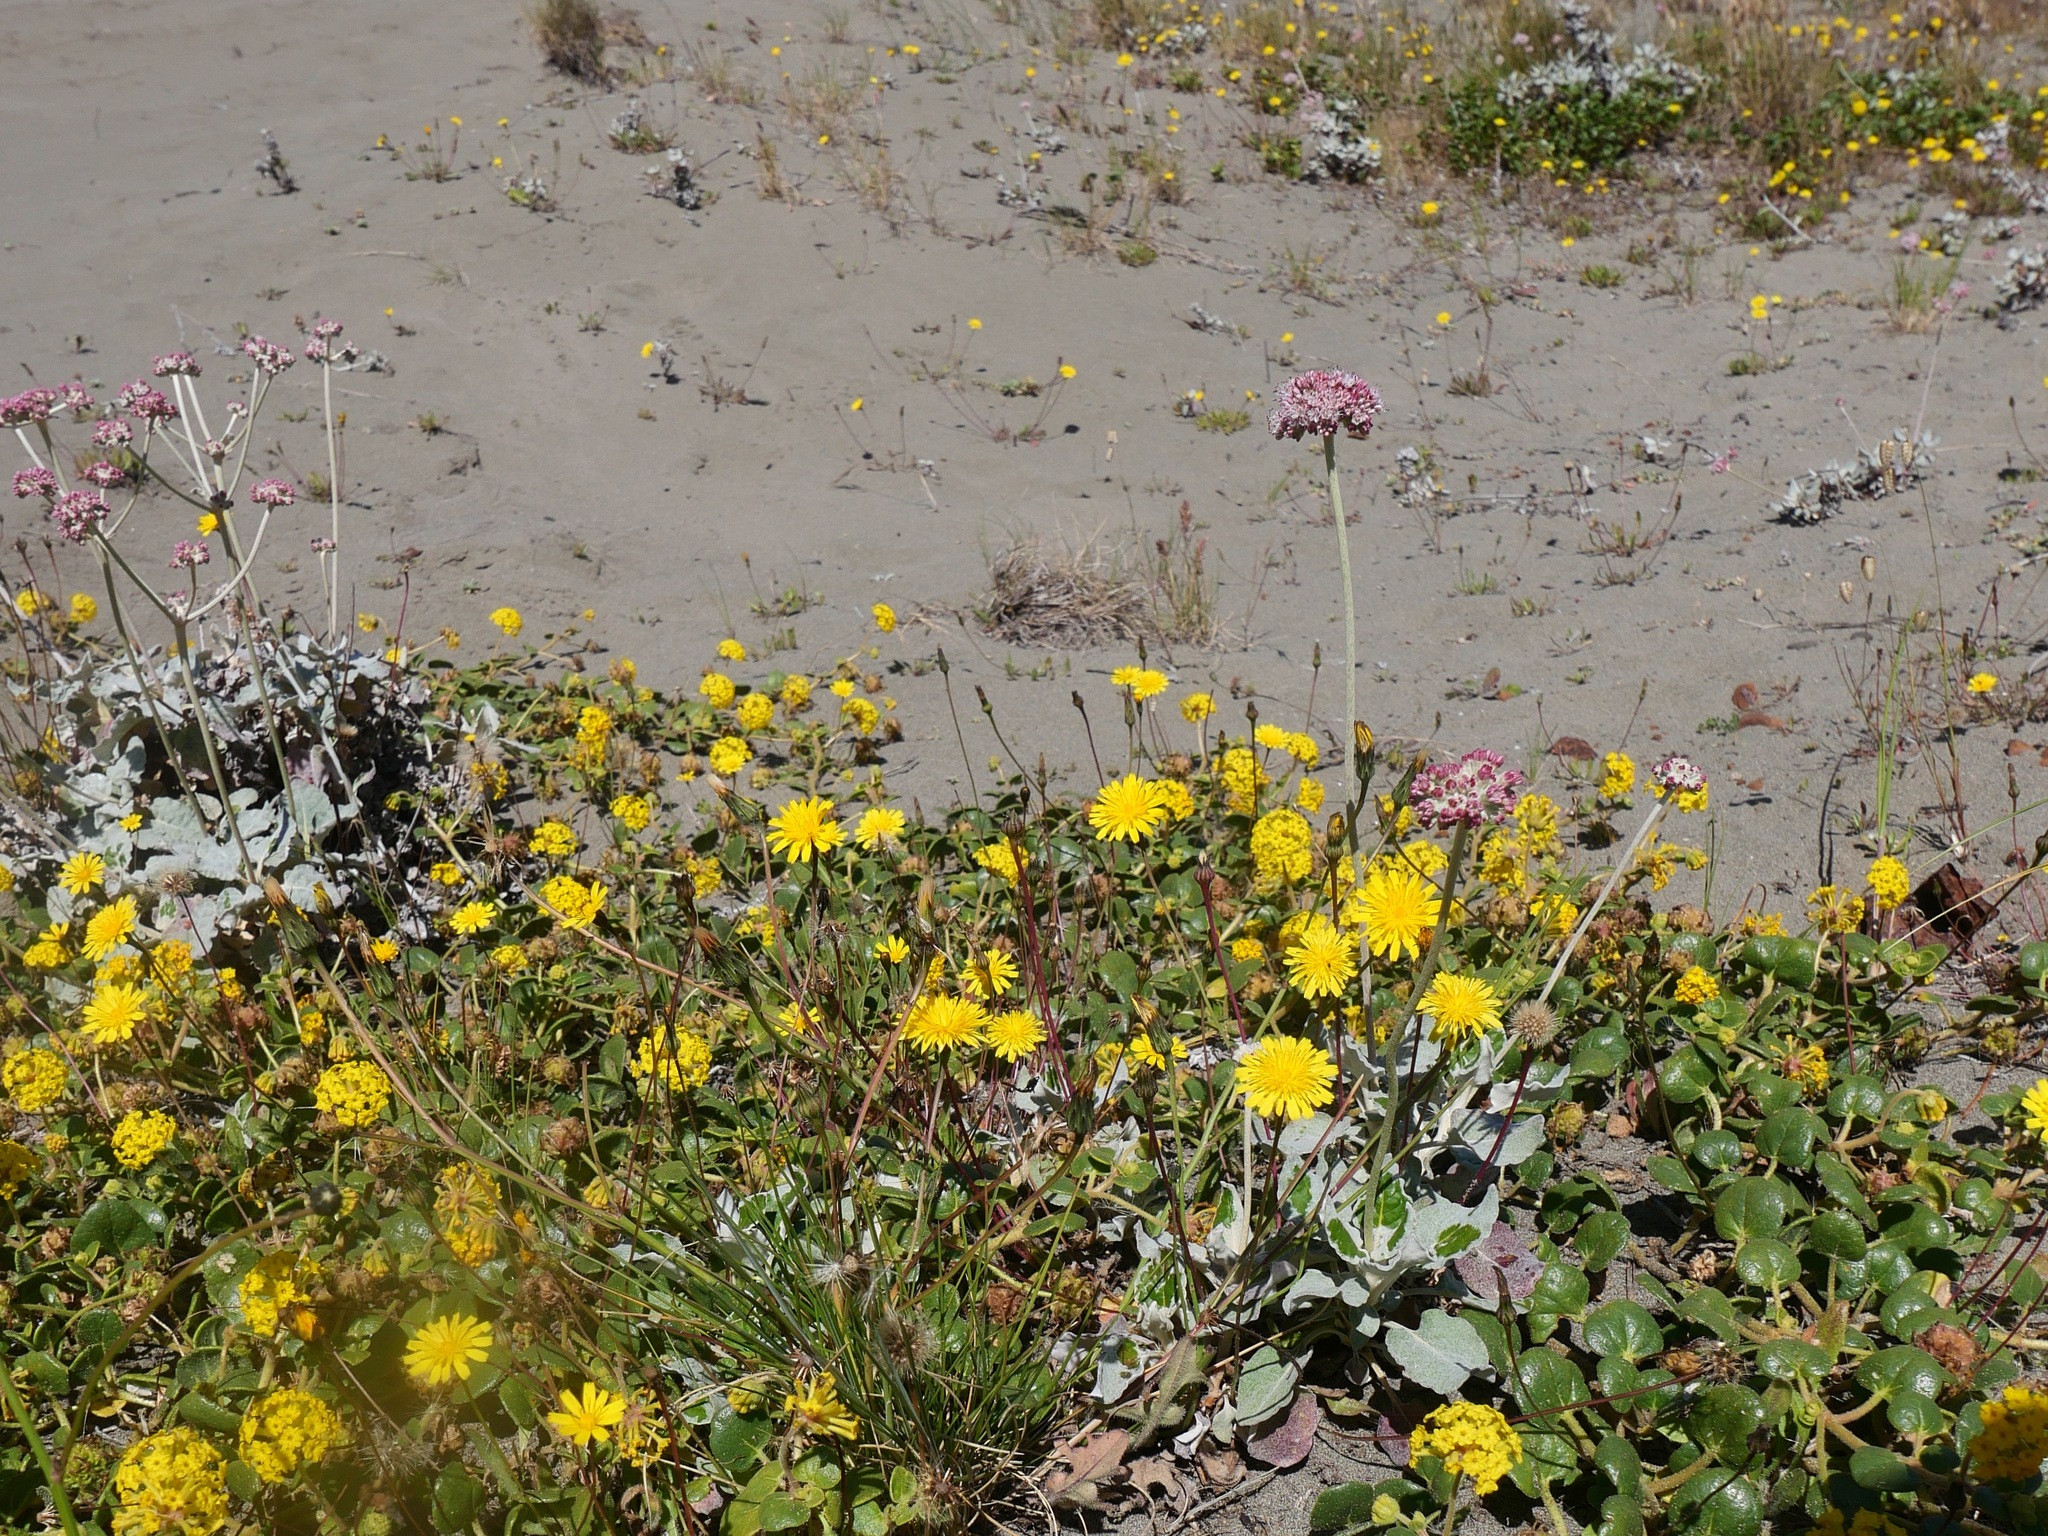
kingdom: Plantae
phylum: Tracheophyta
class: Magnoliopsida
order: Asterales
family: Asteraceae
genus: Agoseris
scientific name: Agoseris apargioides
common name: Point reyes agoseris
